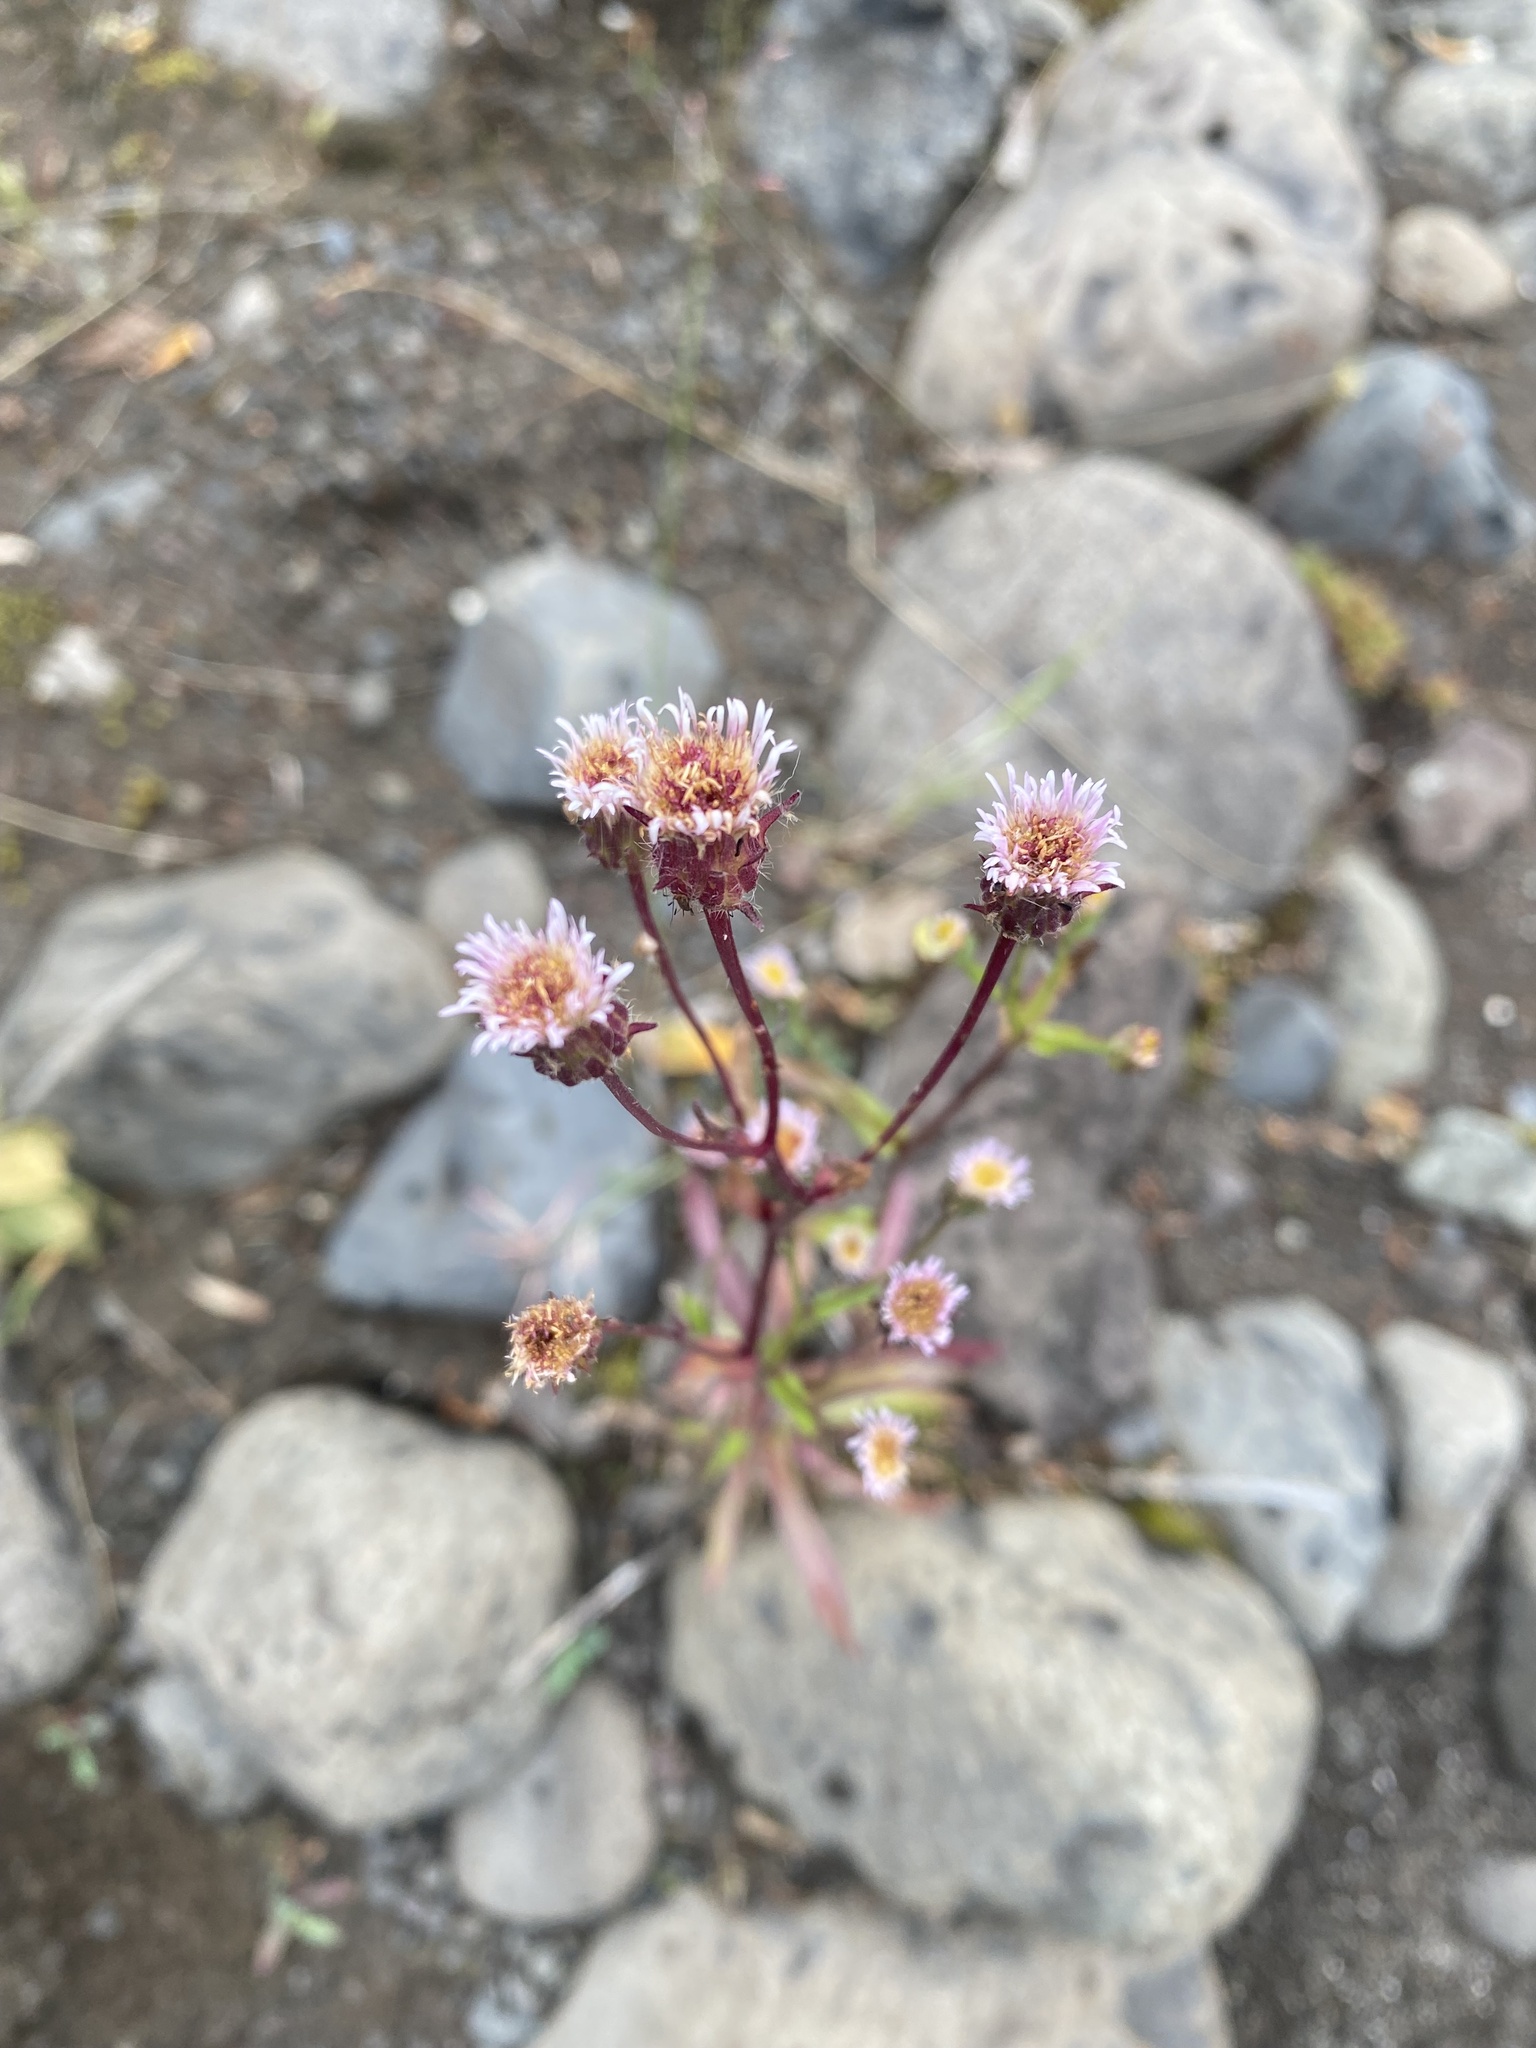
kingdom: Plantae
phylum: Tracheophyta
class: Magnoliopsida
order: Asterales
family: Asteraceae
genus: Erigeron
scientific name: Erigeron acris
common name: Blue fleabane
